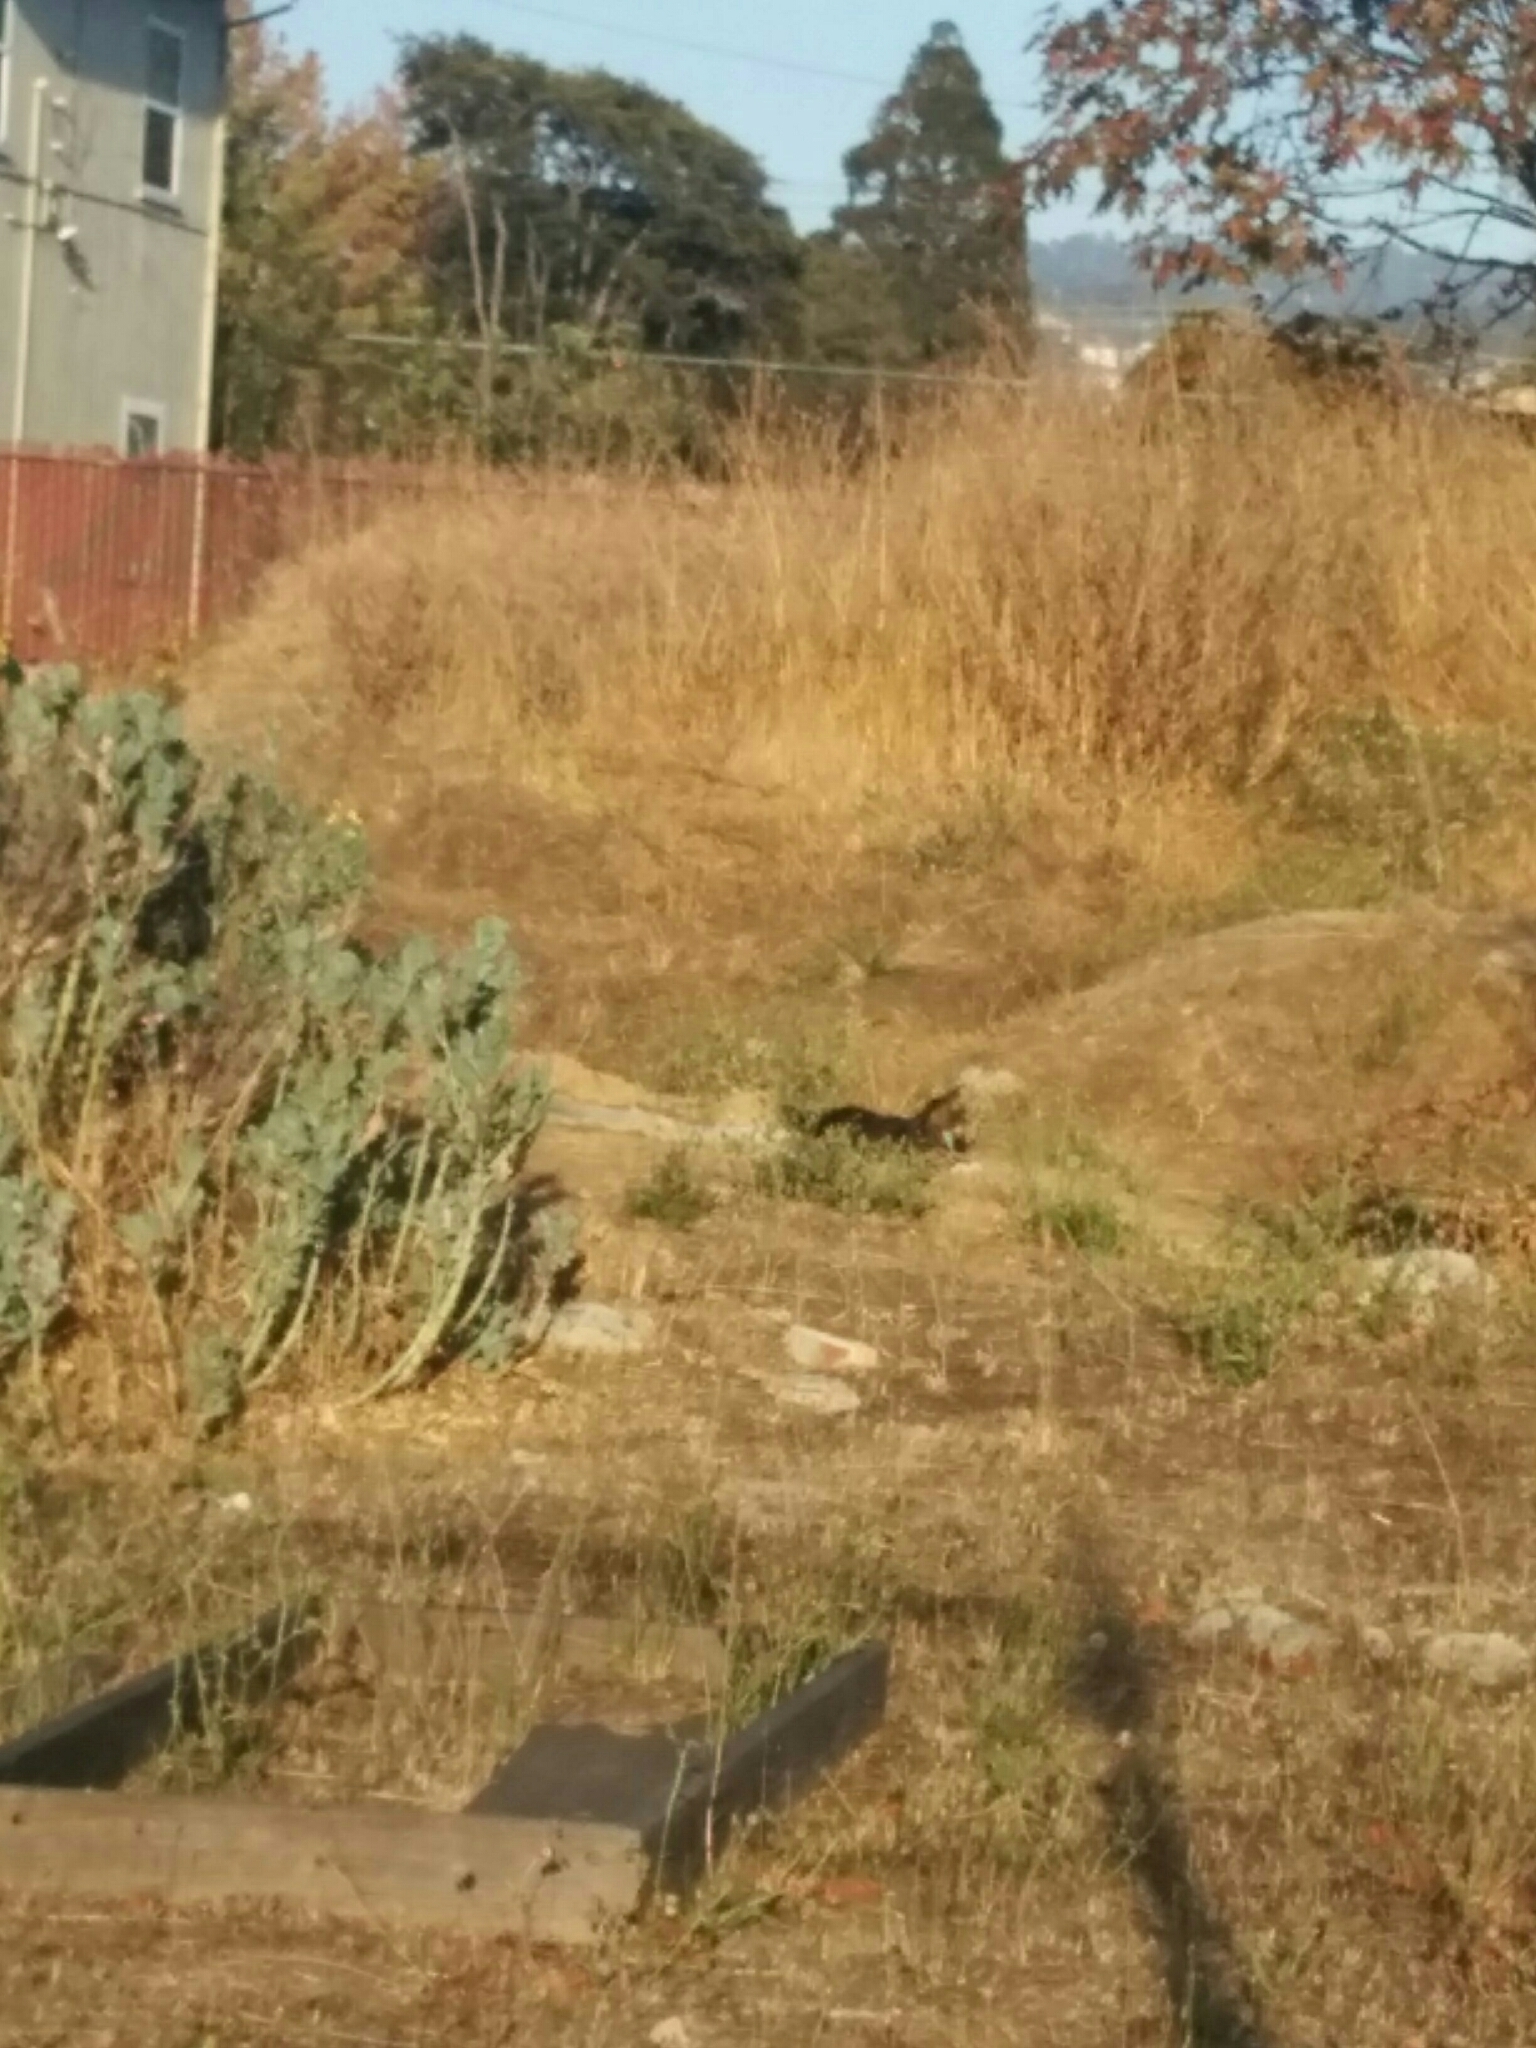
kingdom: Animalia
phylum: Chordata
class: Mammalia
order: Carnivora
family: Felidae
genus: Felis
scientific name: Felis catus
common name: Domestic cat
